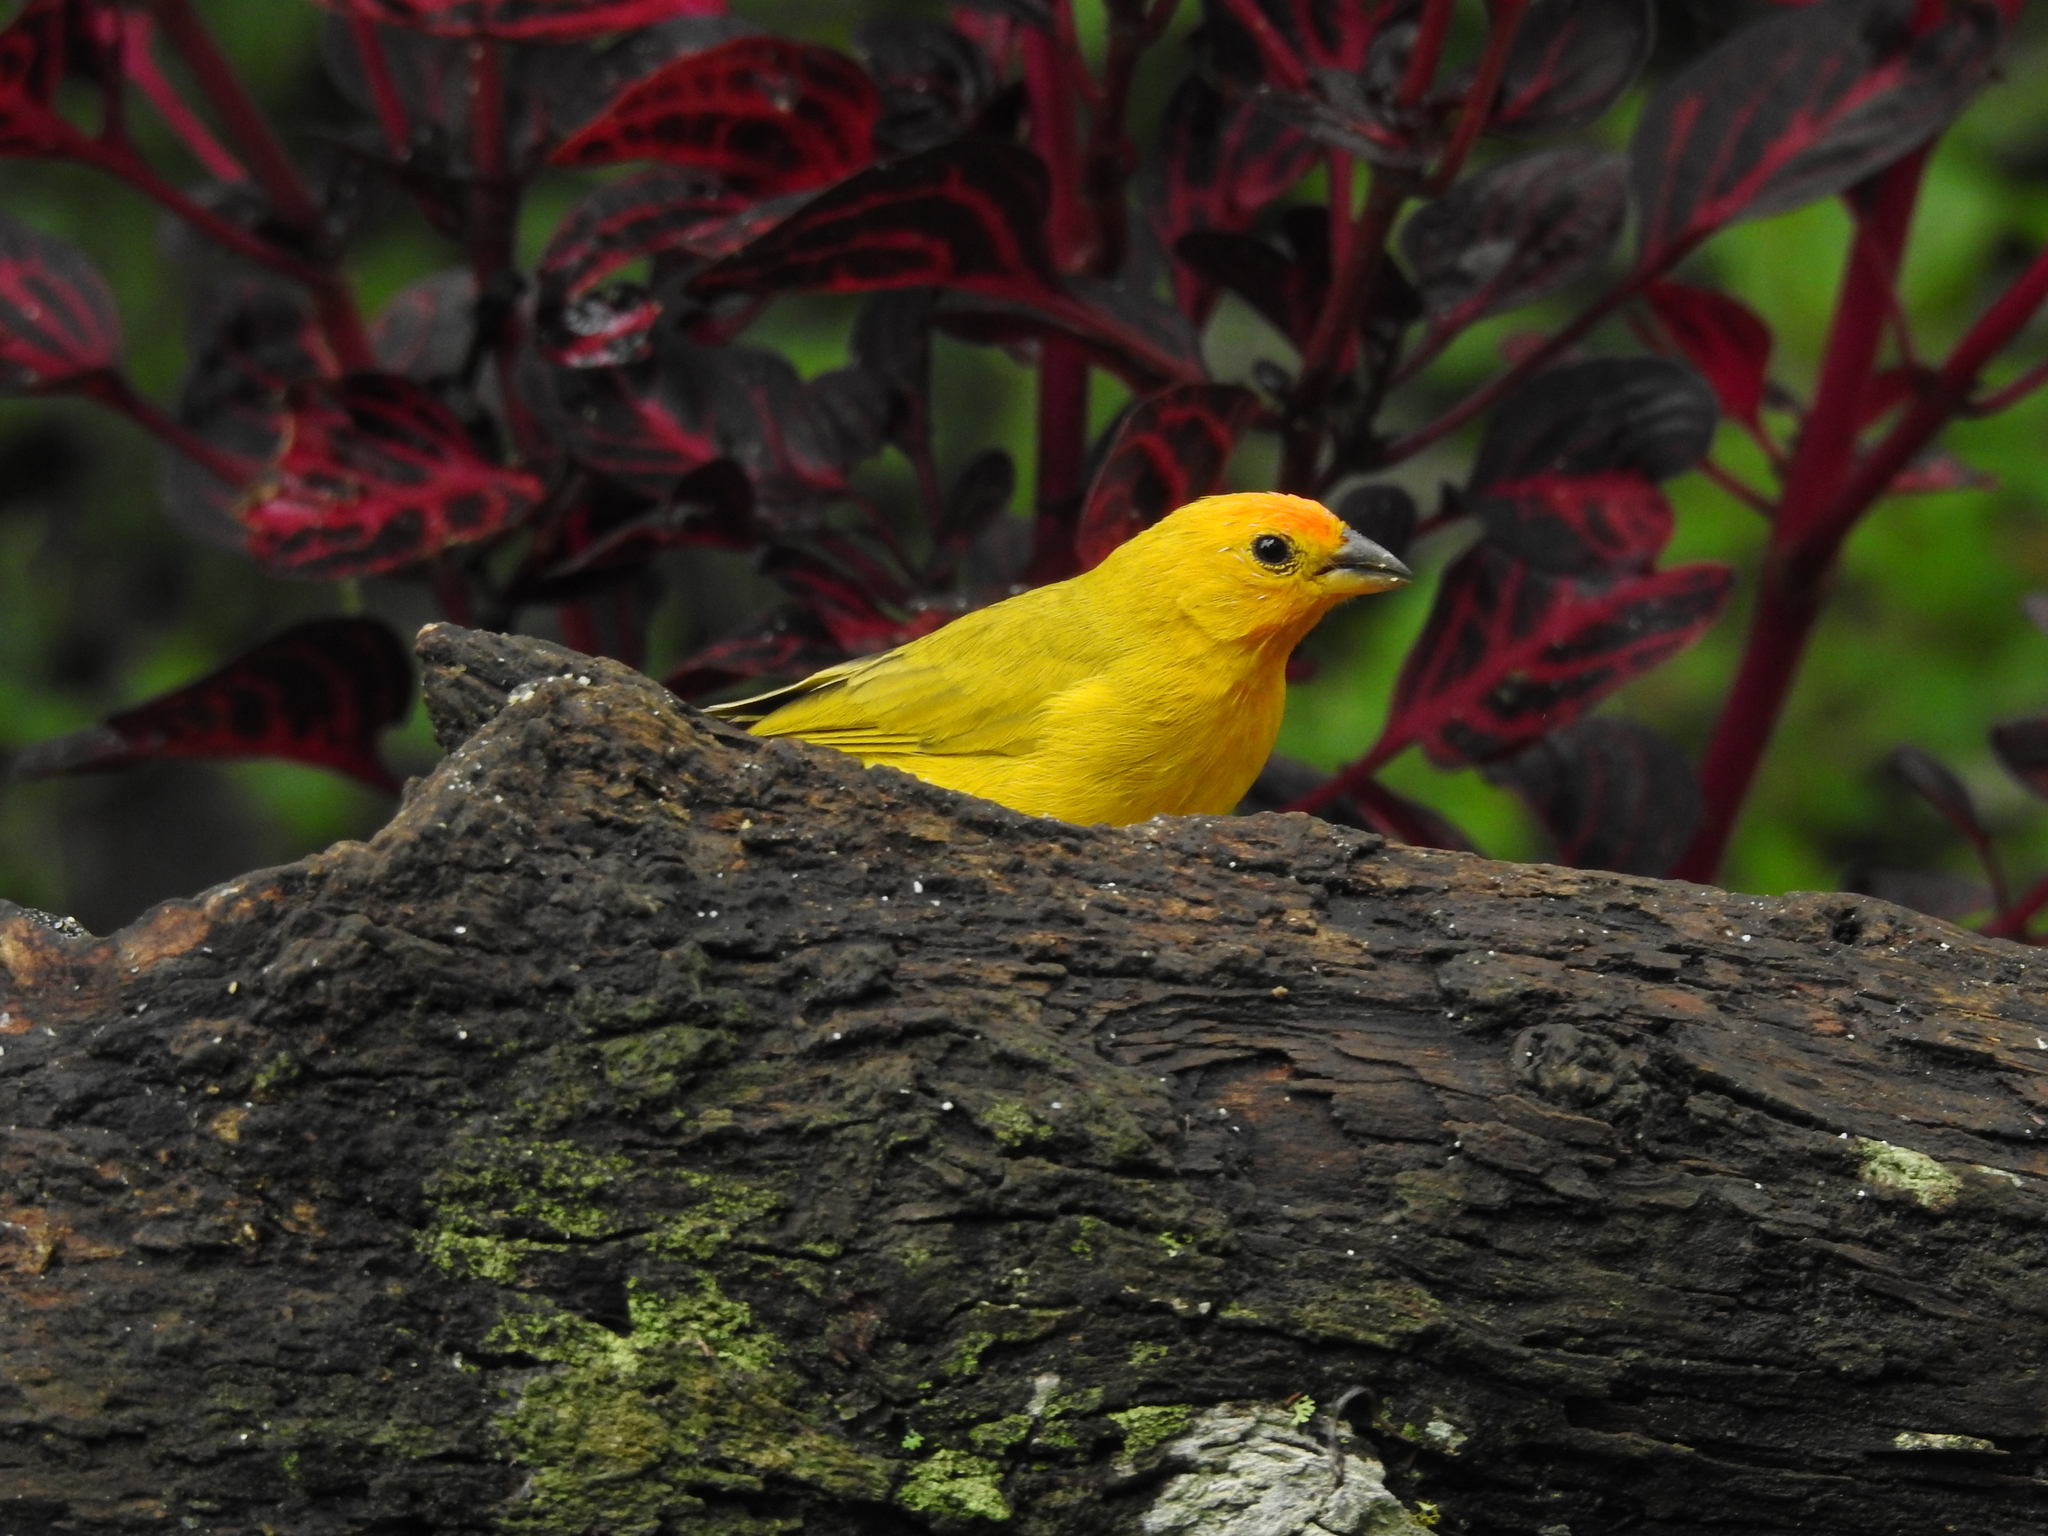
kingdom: Animalia
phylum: Chordata
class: Aves
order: Passeriformes
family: Thraupidae
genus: Sicalis
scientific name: Sicalis flaveola
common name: Saffron finch
